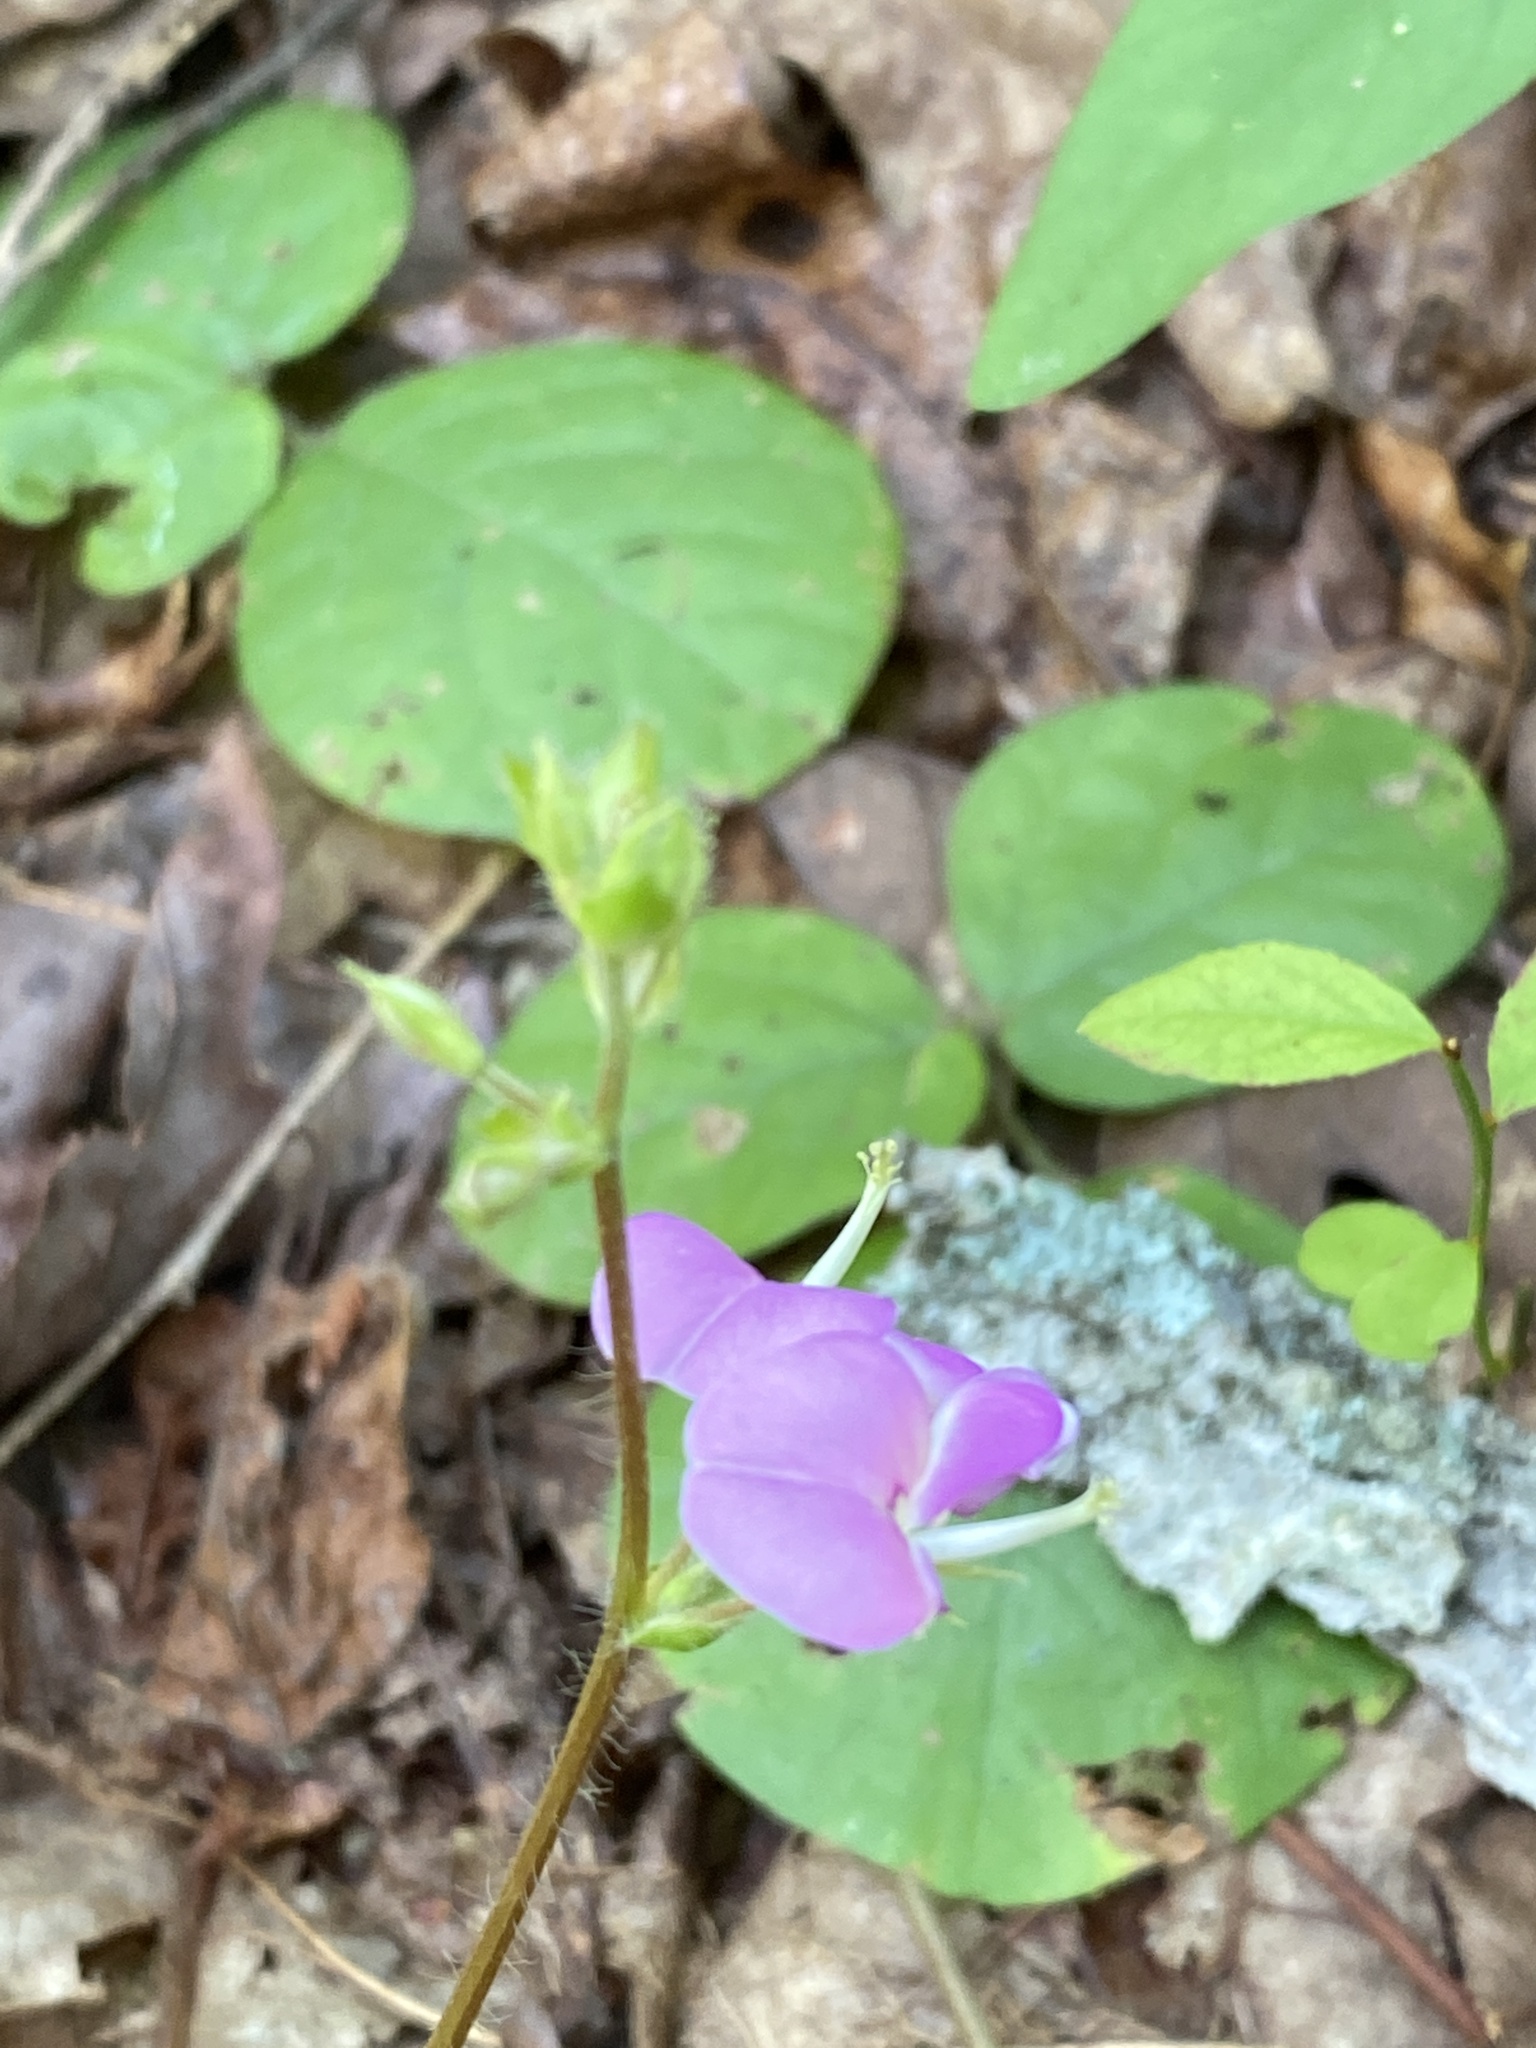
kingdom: Plantae
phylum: Tracheophyta
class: Magnoliopsida
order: Fabales
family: Fabaceae
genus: Desmodium
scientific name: Desmodium rotundifolium
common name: Dollarleaf
